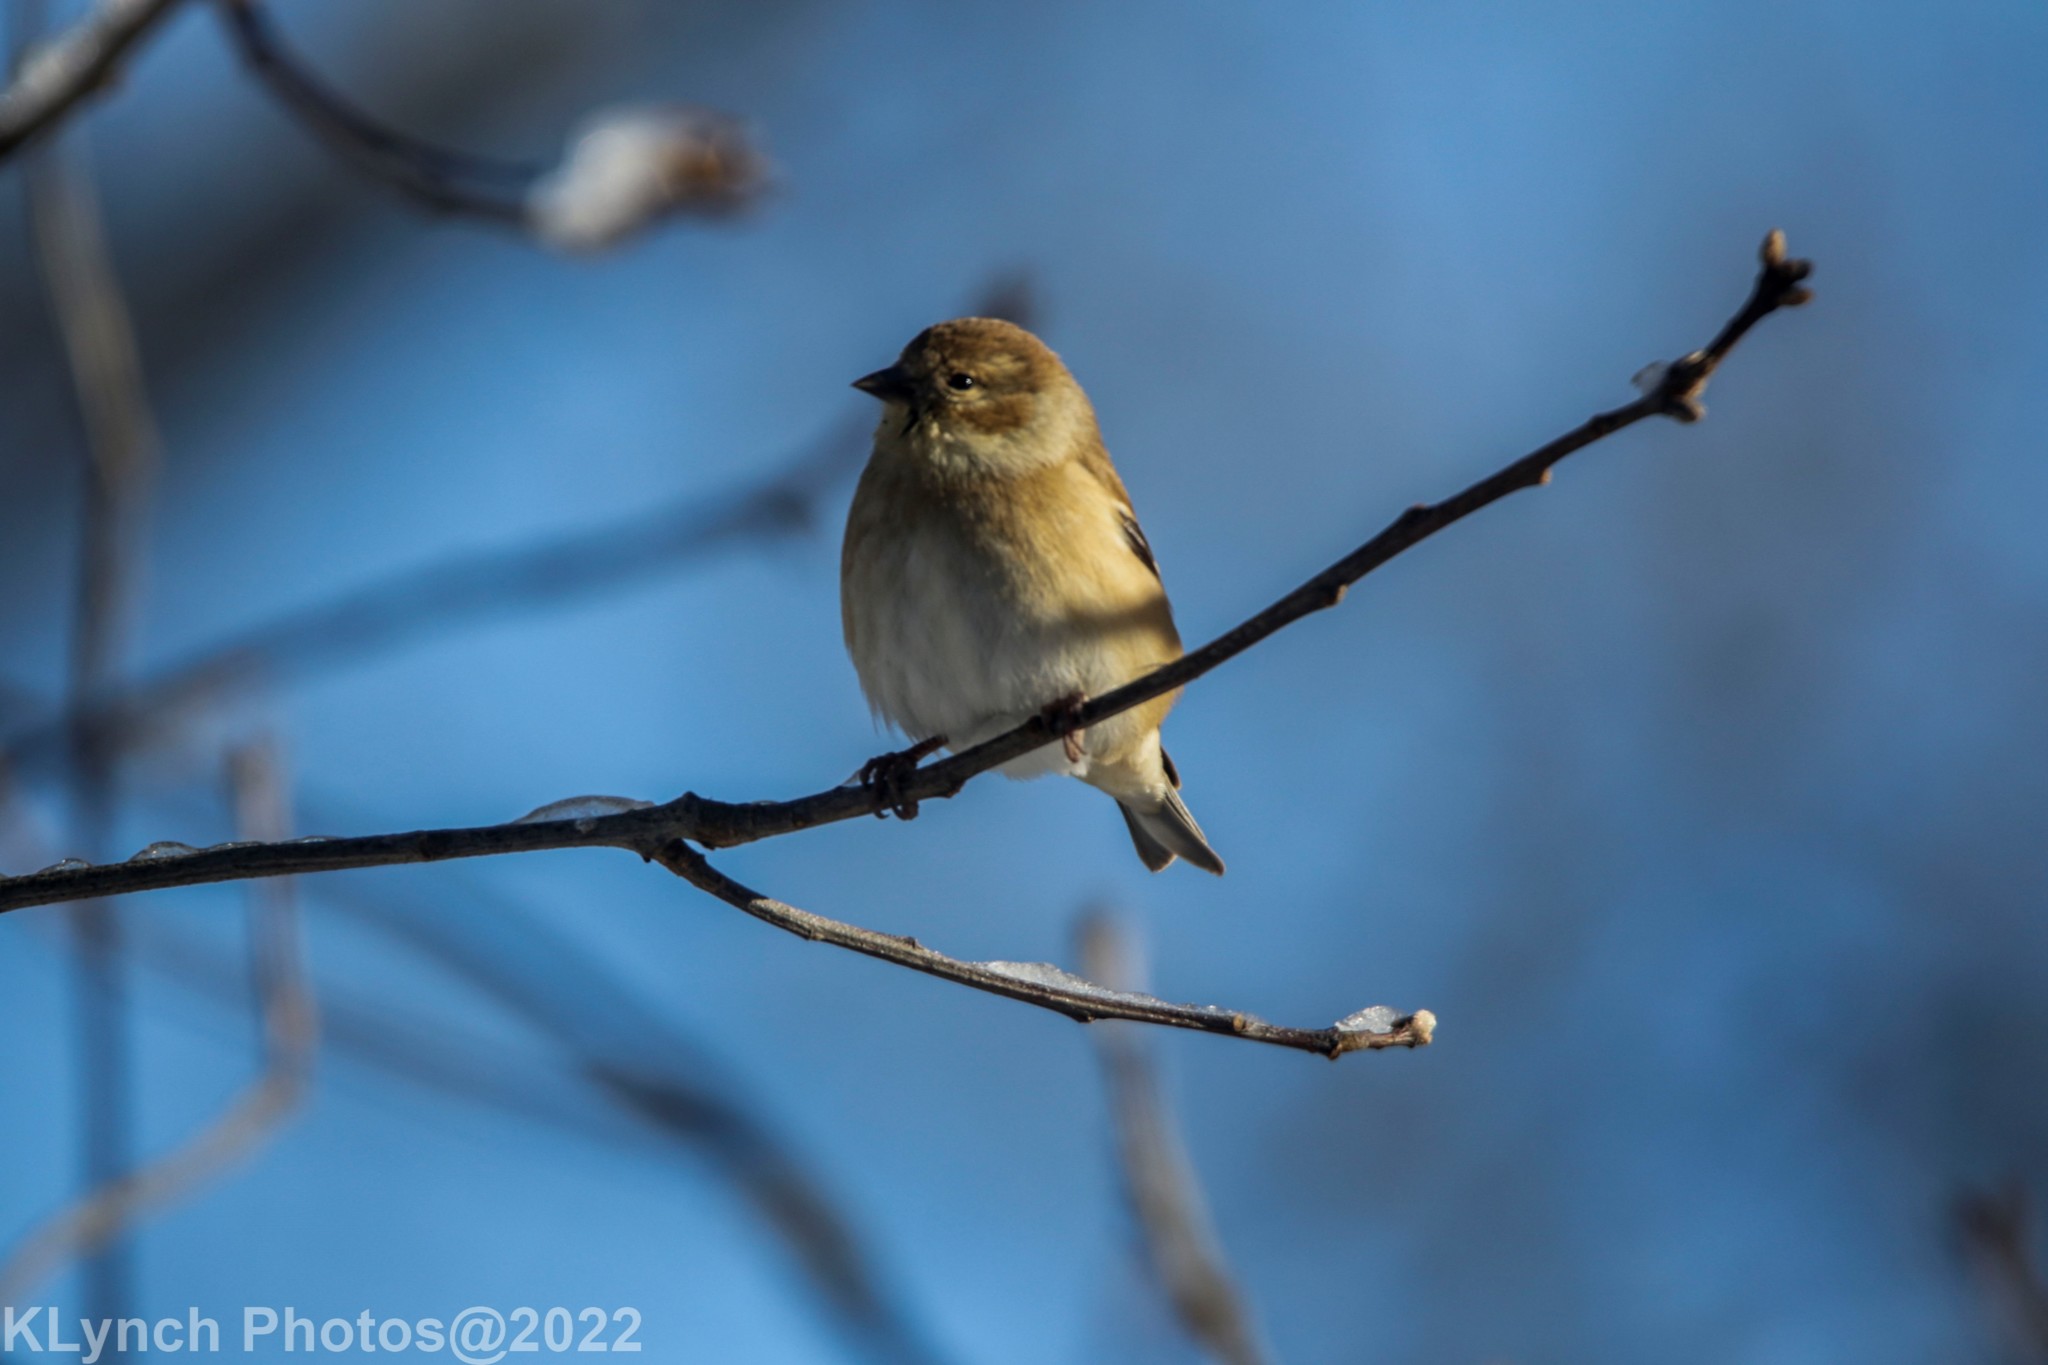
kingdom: Animalia
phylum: Chordata
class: Aves
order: Passeriformes
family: Fringillidae
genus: Spinus
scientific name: Spinus tristis
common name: American goldfinch
